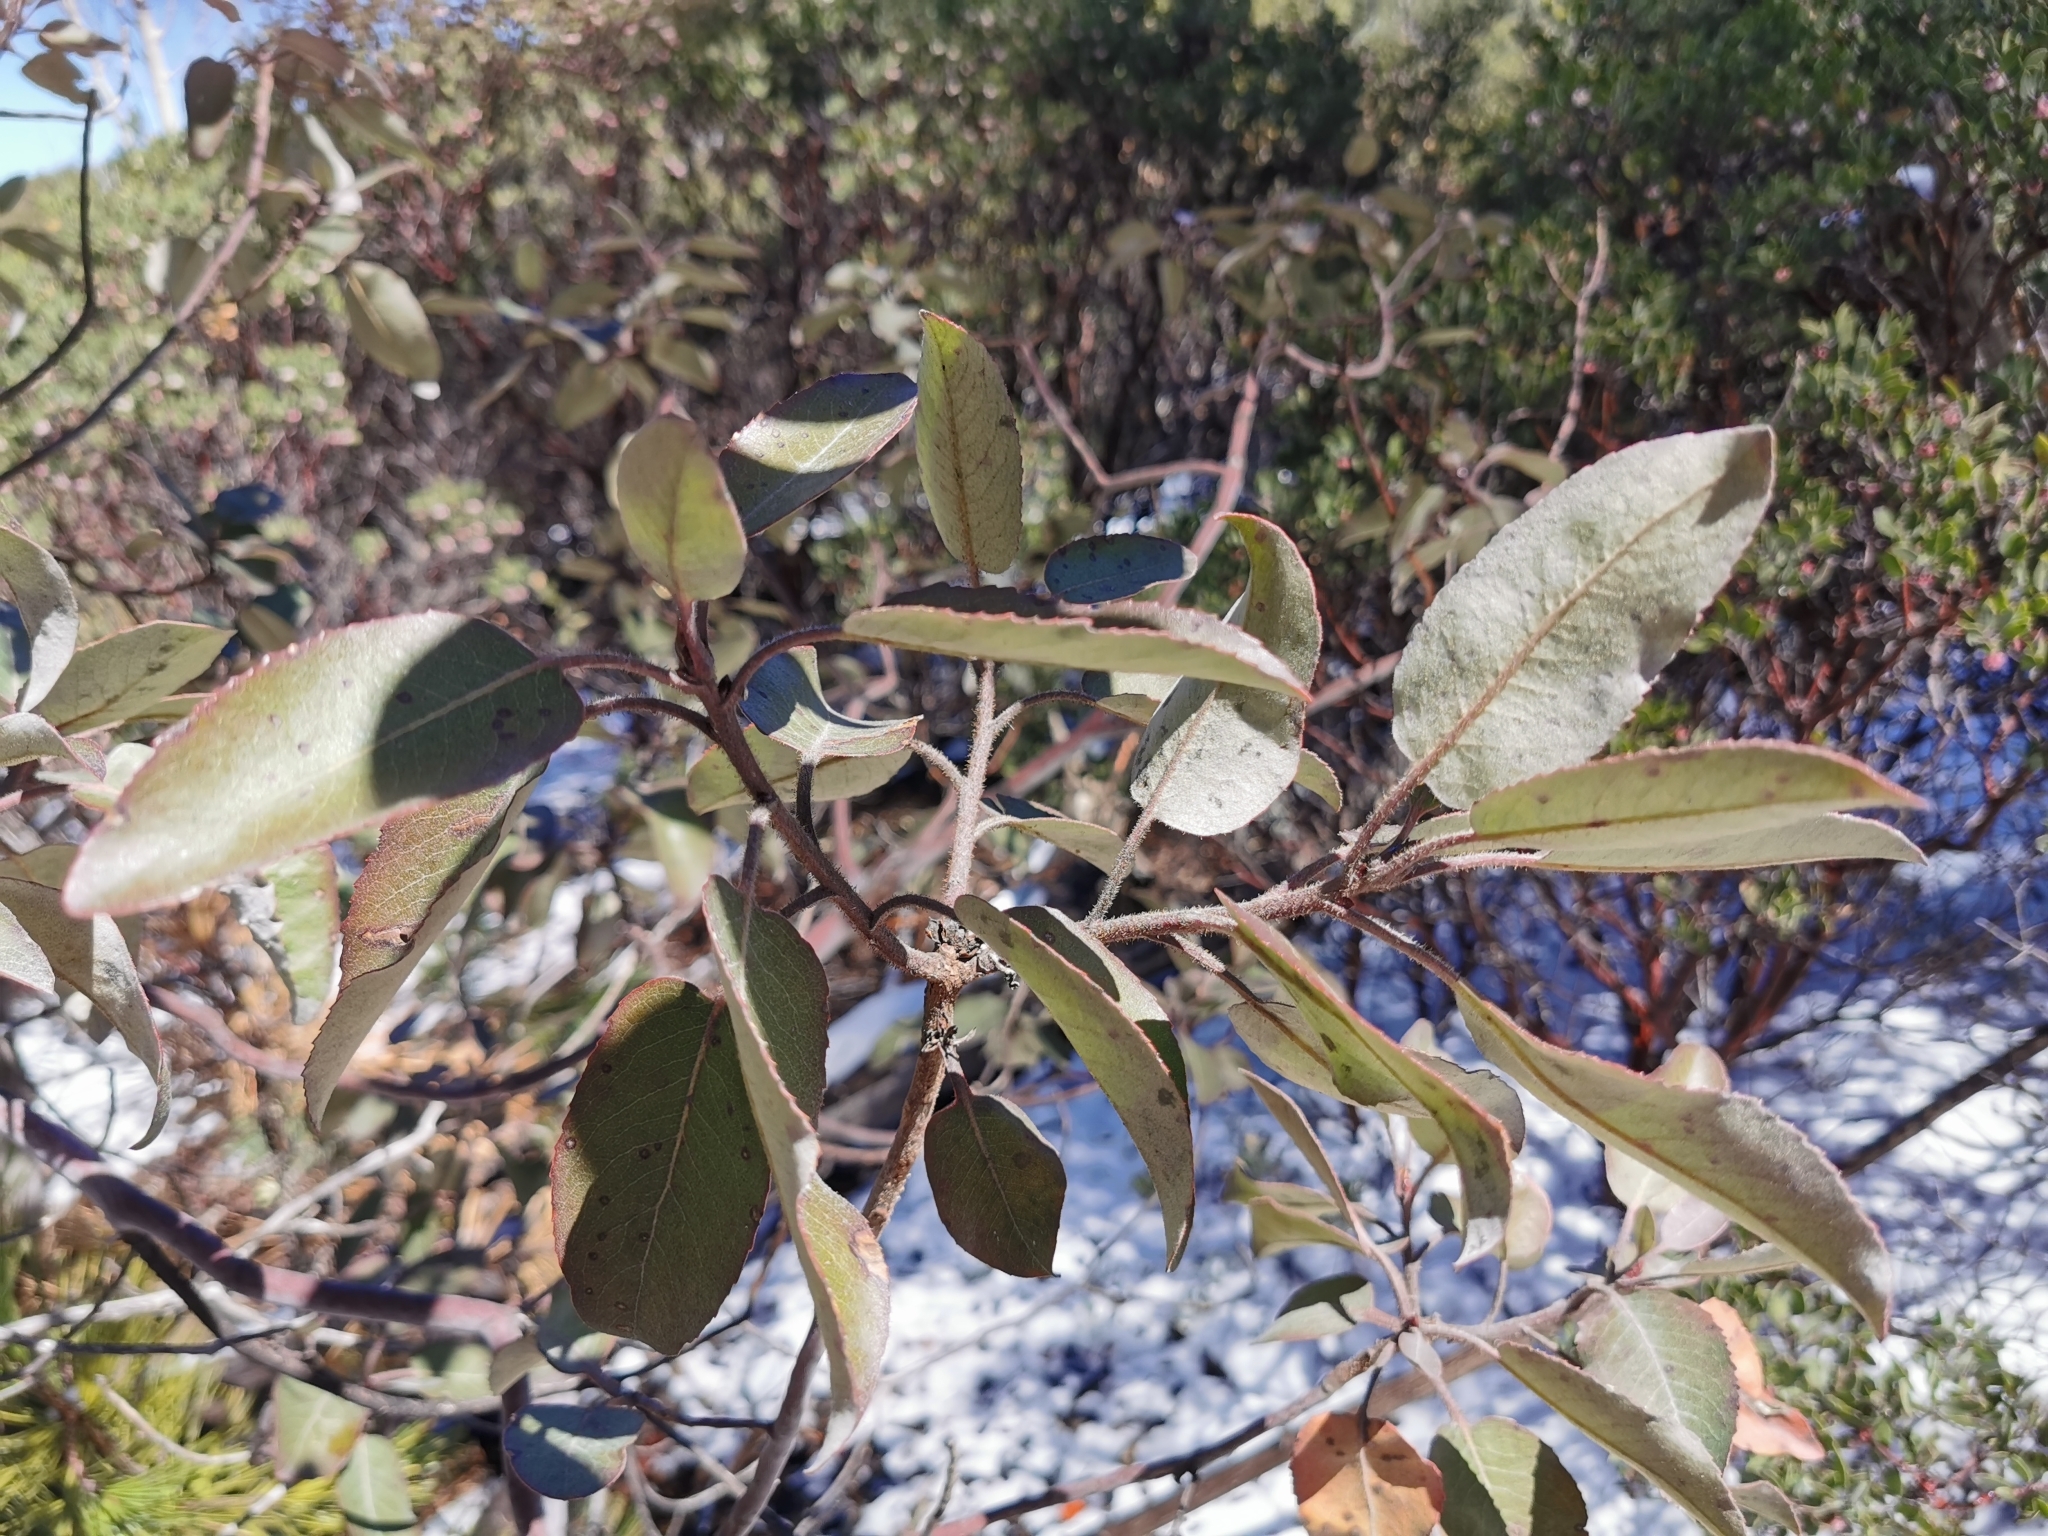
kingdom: Plantae
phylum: Tracheophyta
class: Magnoliopsida
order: Ericales
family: Ericaceae
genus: Arbutus
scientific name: Arbutus bicolor
